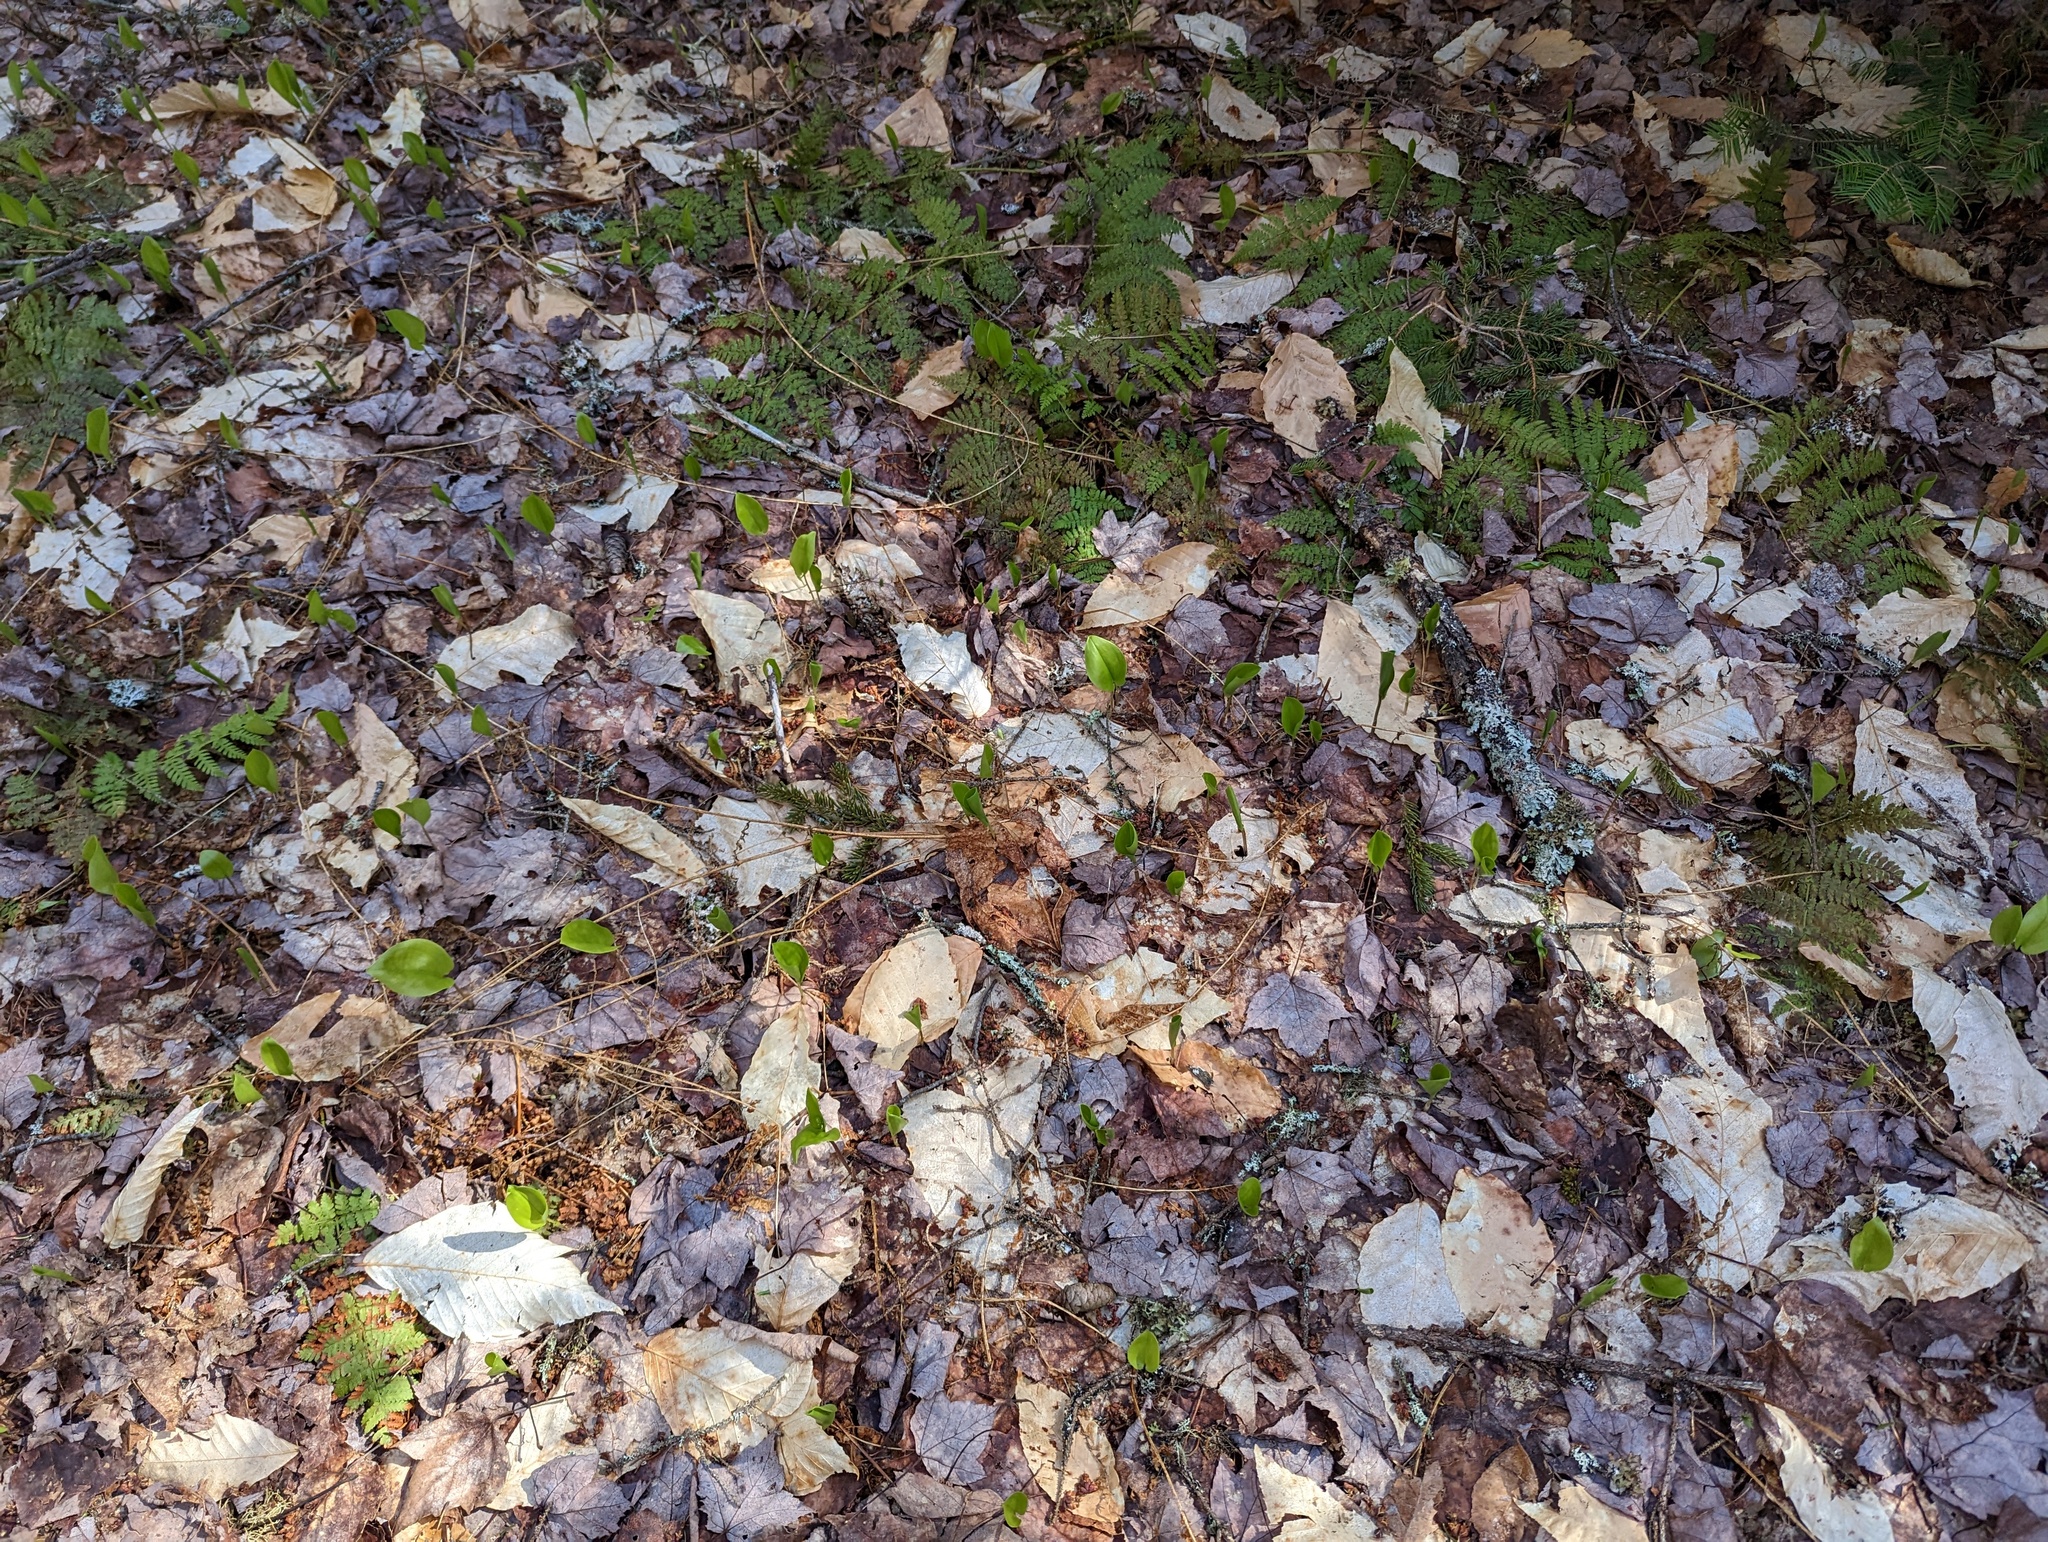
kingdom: Plantae
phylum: Tracheophyta
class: Liliopsida
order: Asparagales
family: Asparagaceae
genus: Maianthemum
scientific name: Maianthemum canadense
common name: False lily-of-the-valley
